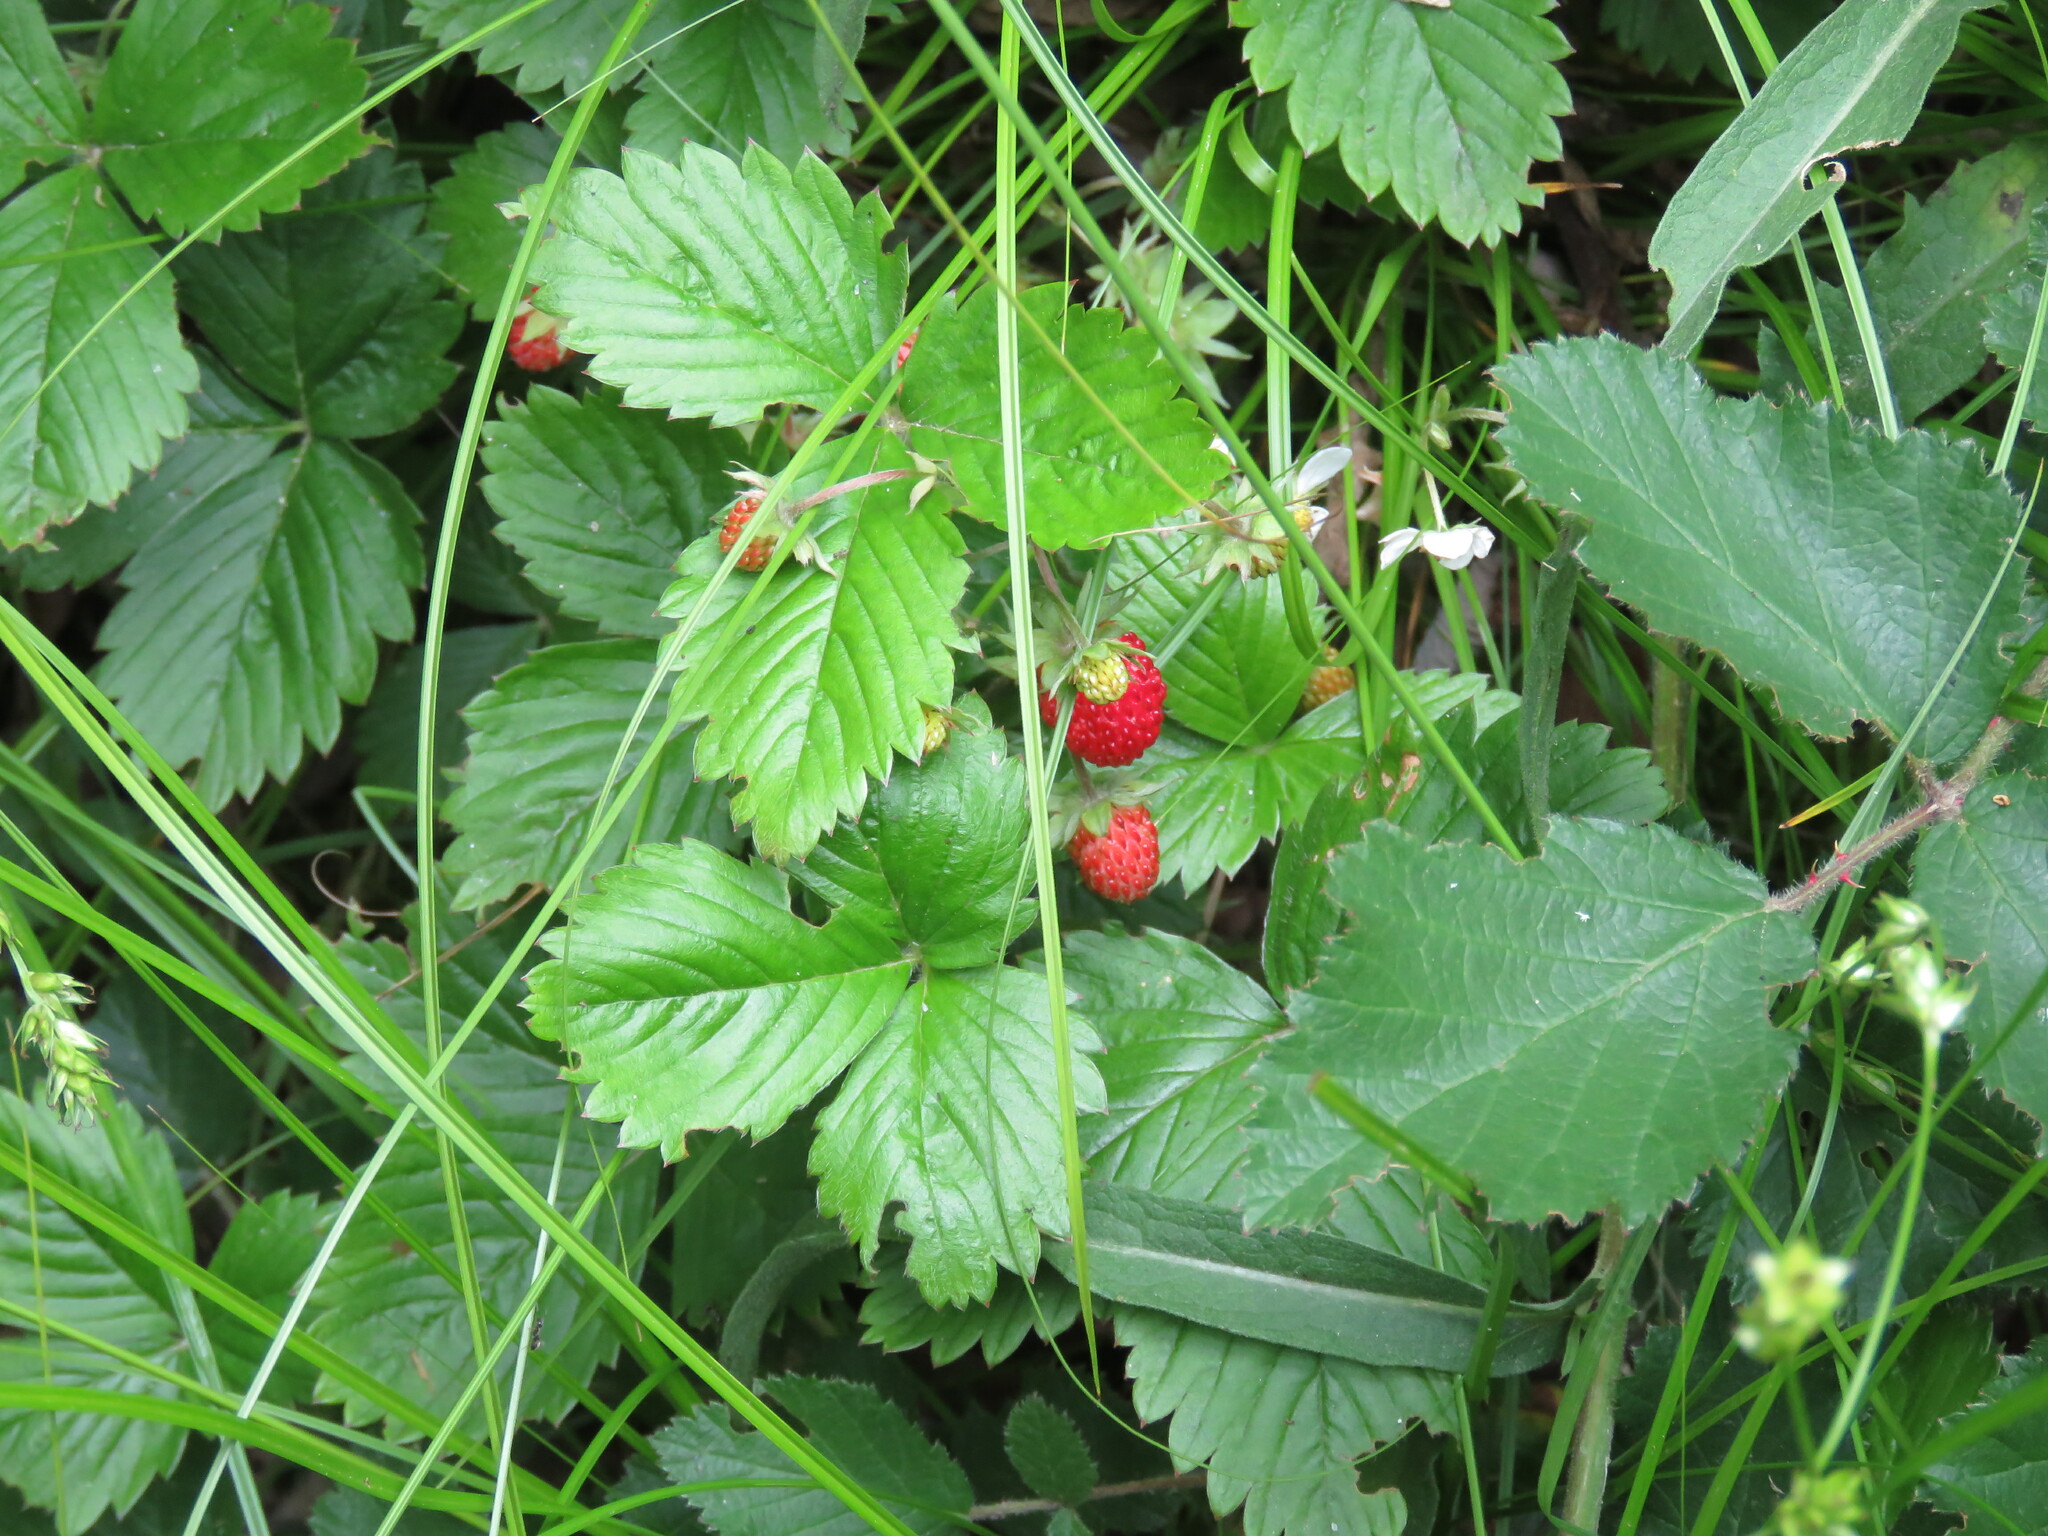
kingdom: Plantae
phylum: Tracheophyta
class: Magnoliopsida
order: Rosales
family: Rosaceae
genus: Fragaria
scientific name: Fragaria vesca
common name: Wild strawberry
